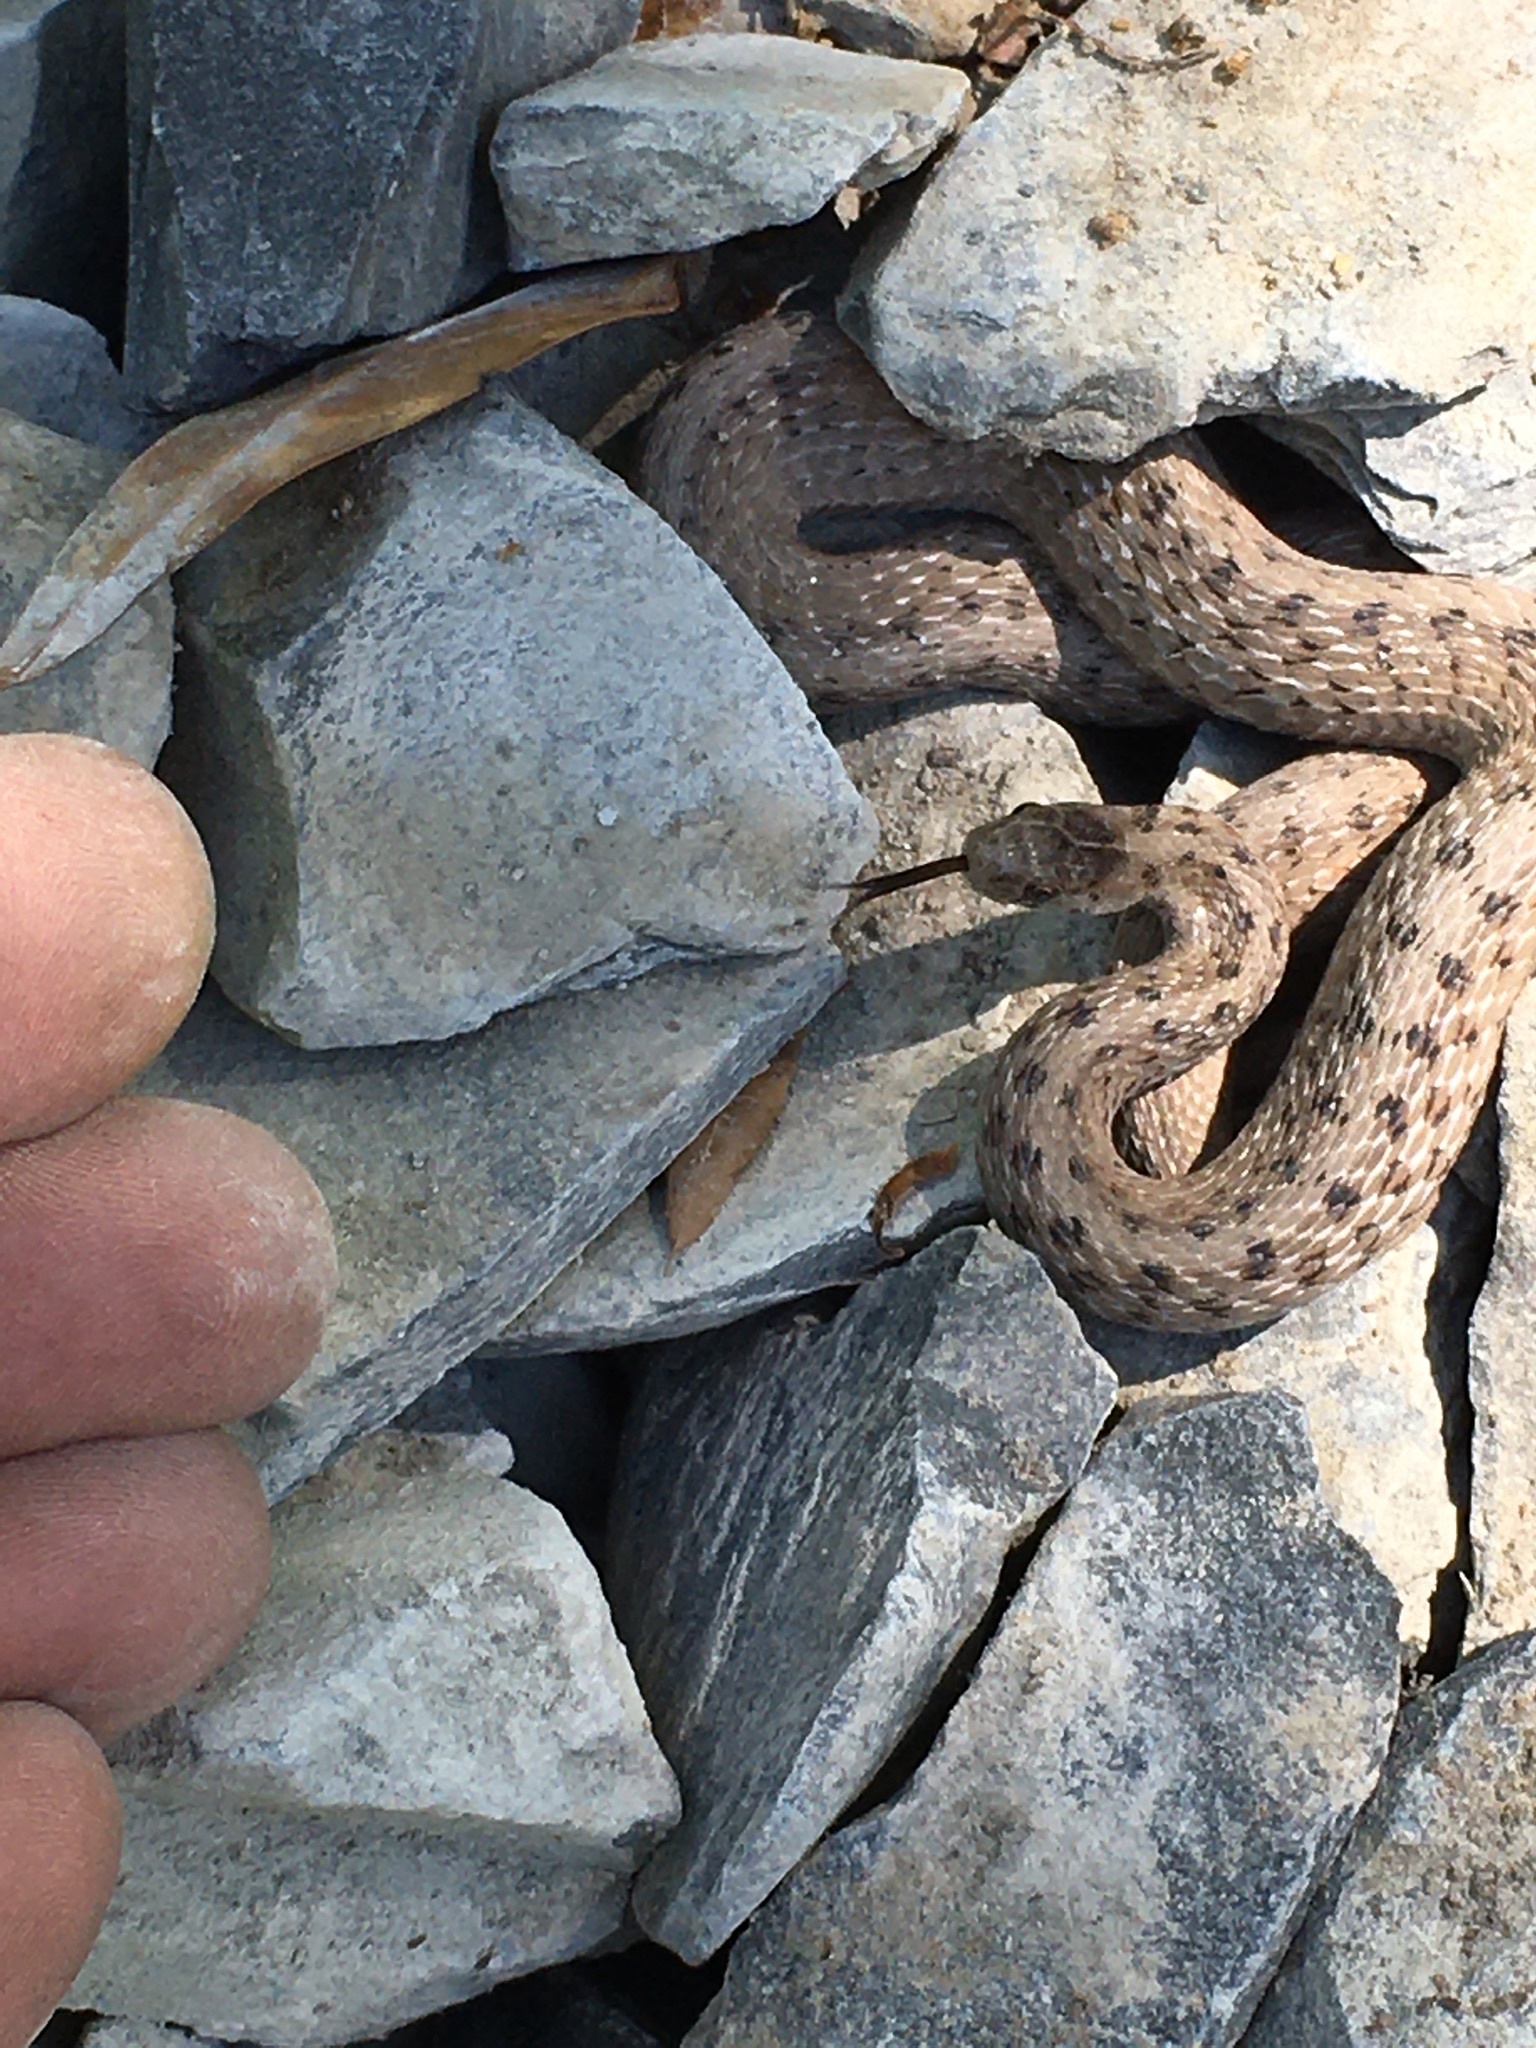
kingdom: Animalia
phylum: Chordata
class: Squamata
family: Colubridae
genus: Storeria
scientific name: Storeria dekayi
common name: (dekay’s) brown snake
